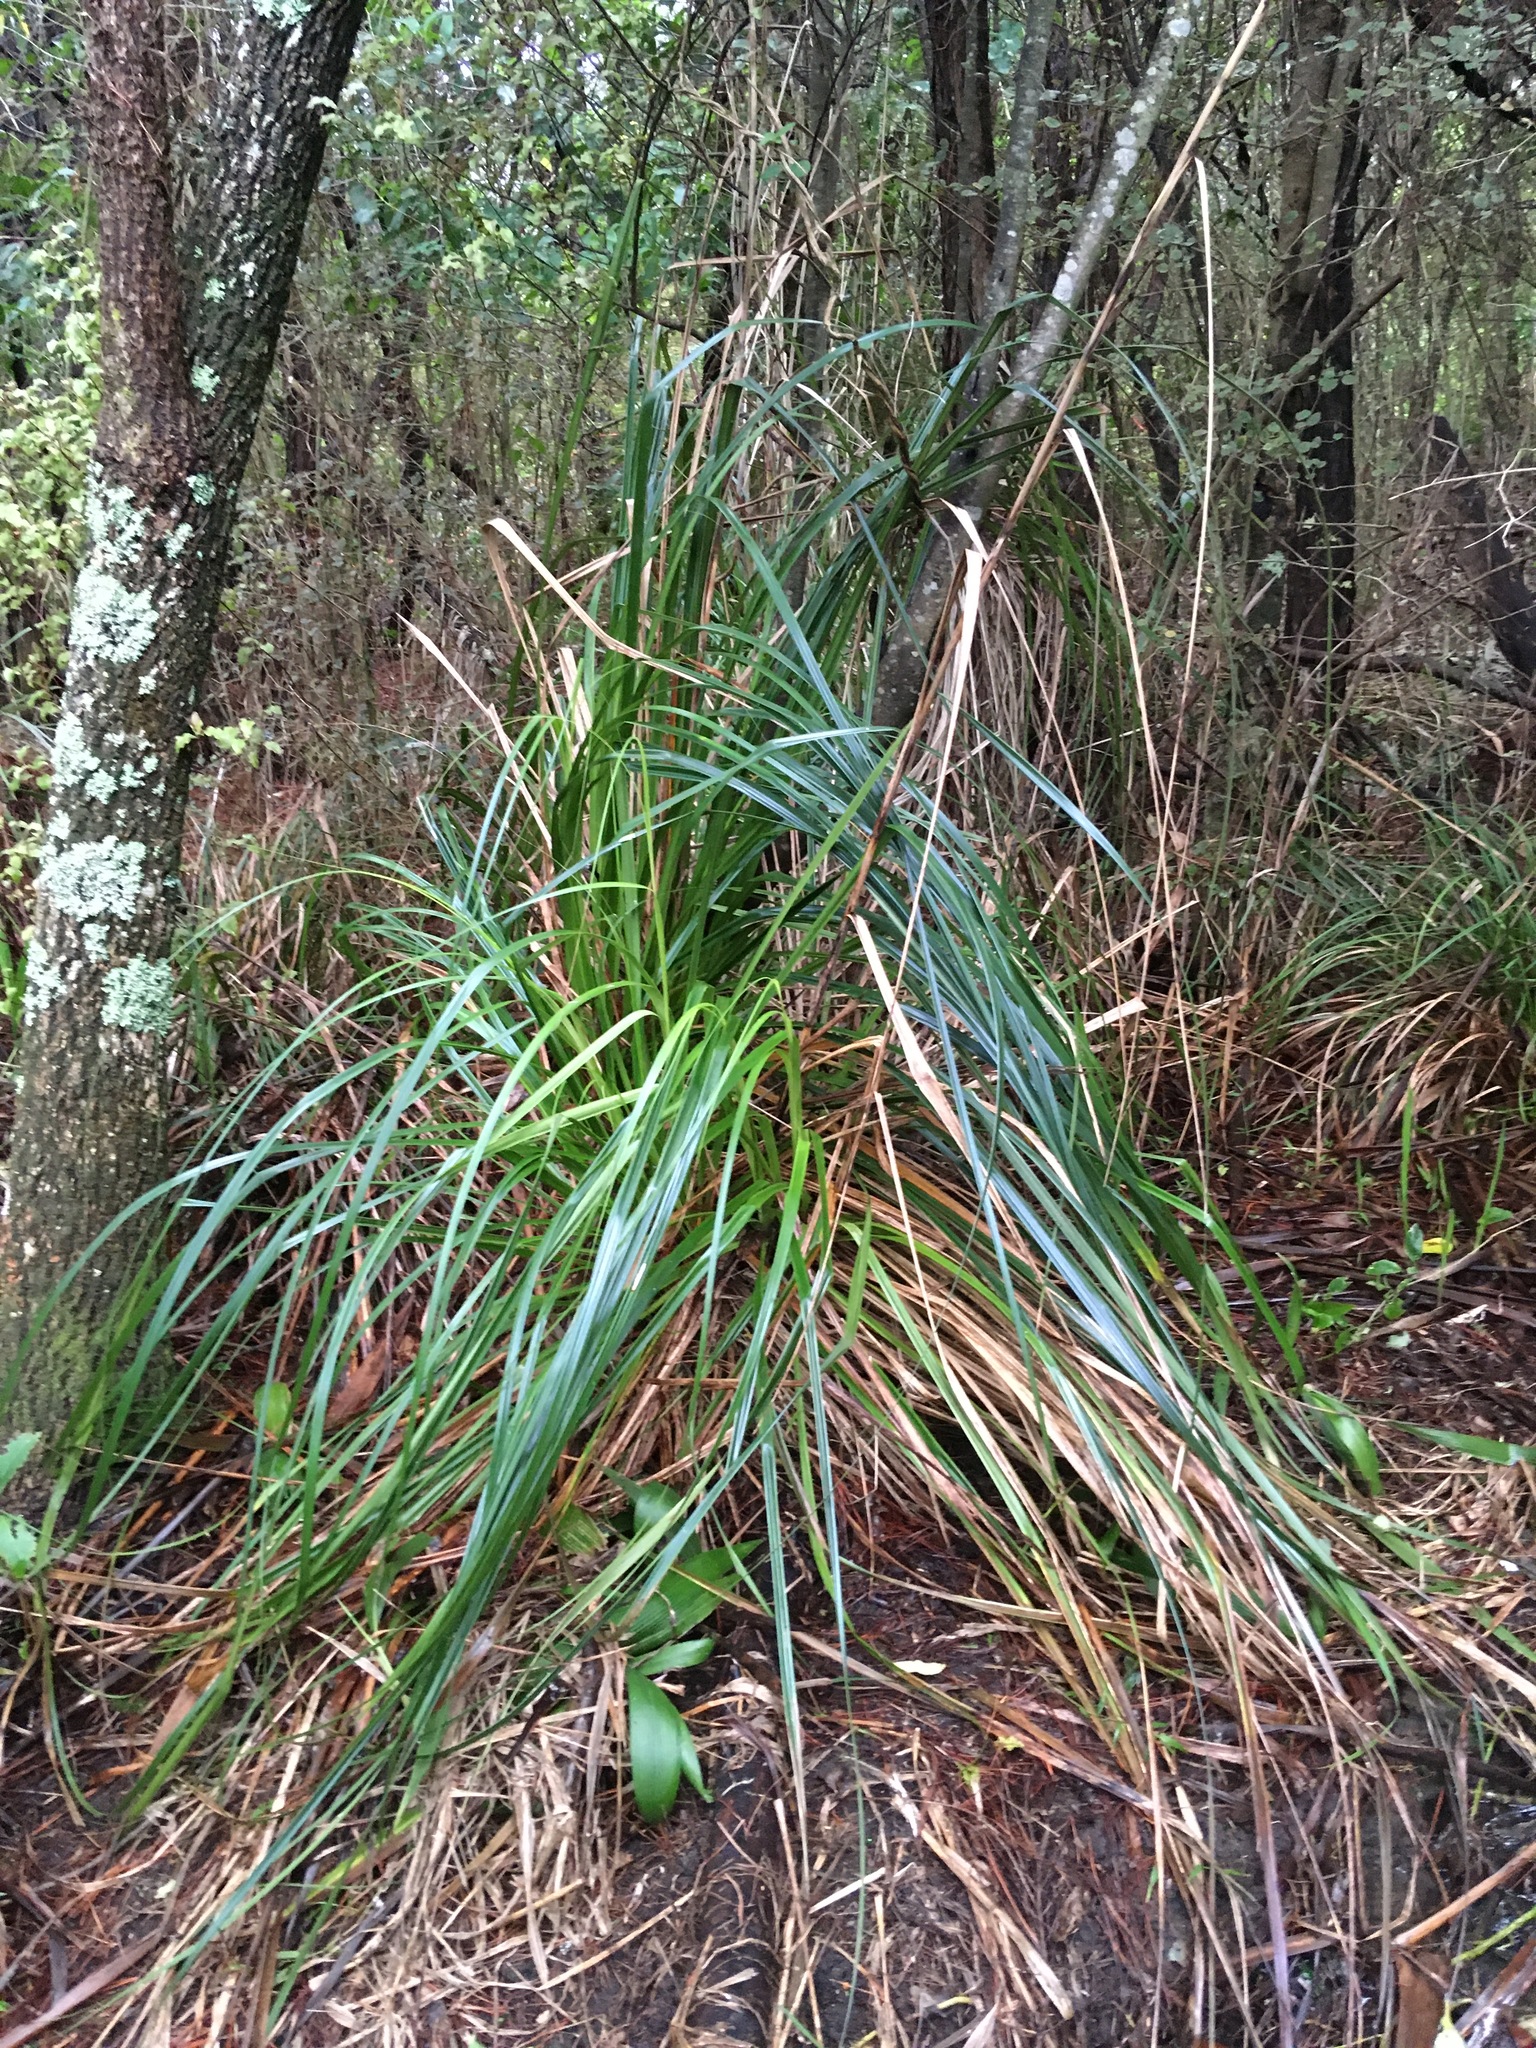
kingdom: Plantae
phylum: Tracheophyta
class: Liliopsida
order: Poales
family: Cyperaceae
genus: Gahnia
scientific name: Gahnia xanthocarpa
